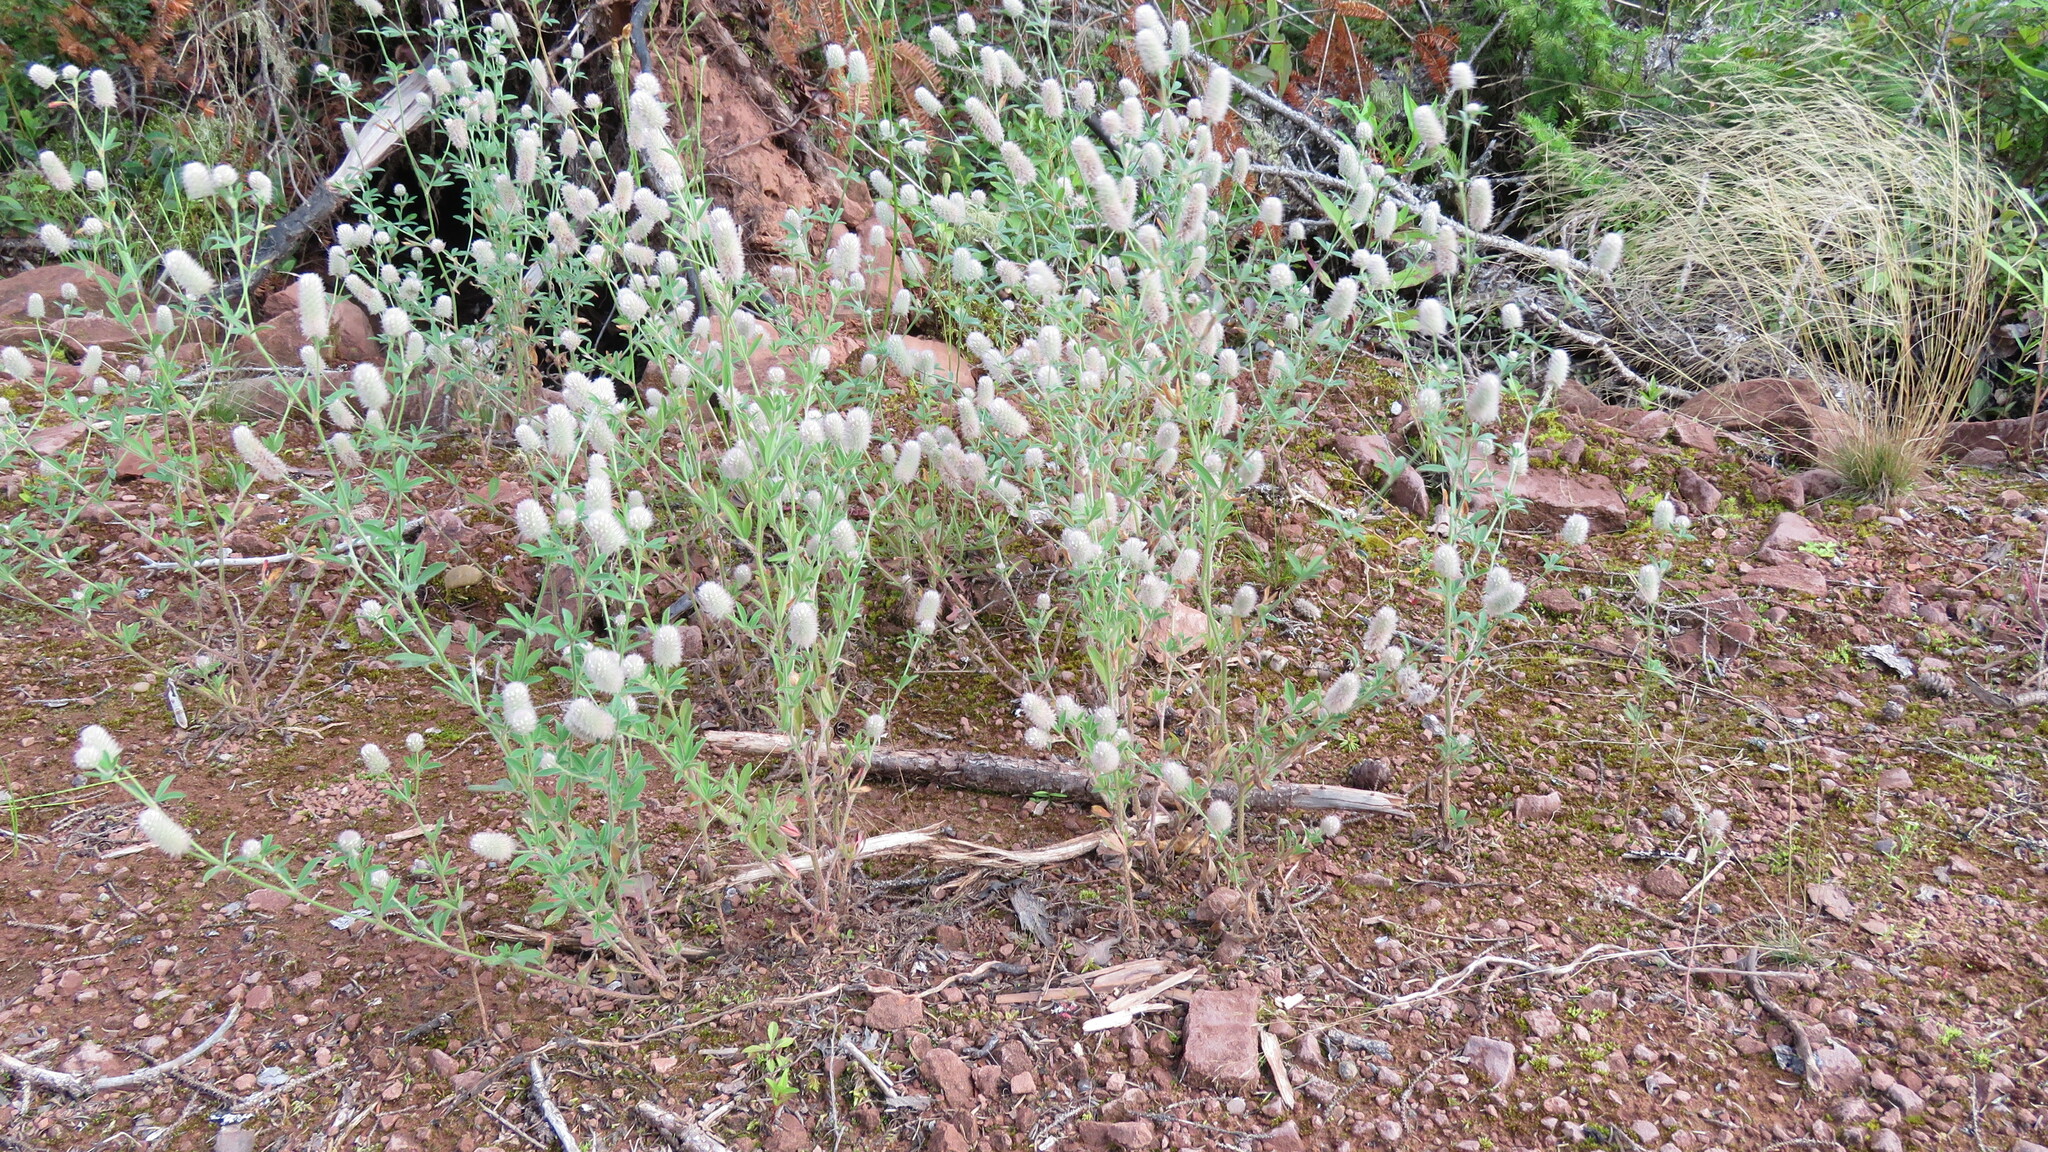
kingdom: Plantae
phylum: Tracheophyta
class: Magnoliopsida
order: Fabales
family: Fabaceae
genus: Trifolium
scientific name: Trifolium arvense
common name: Hare's-foot clover
